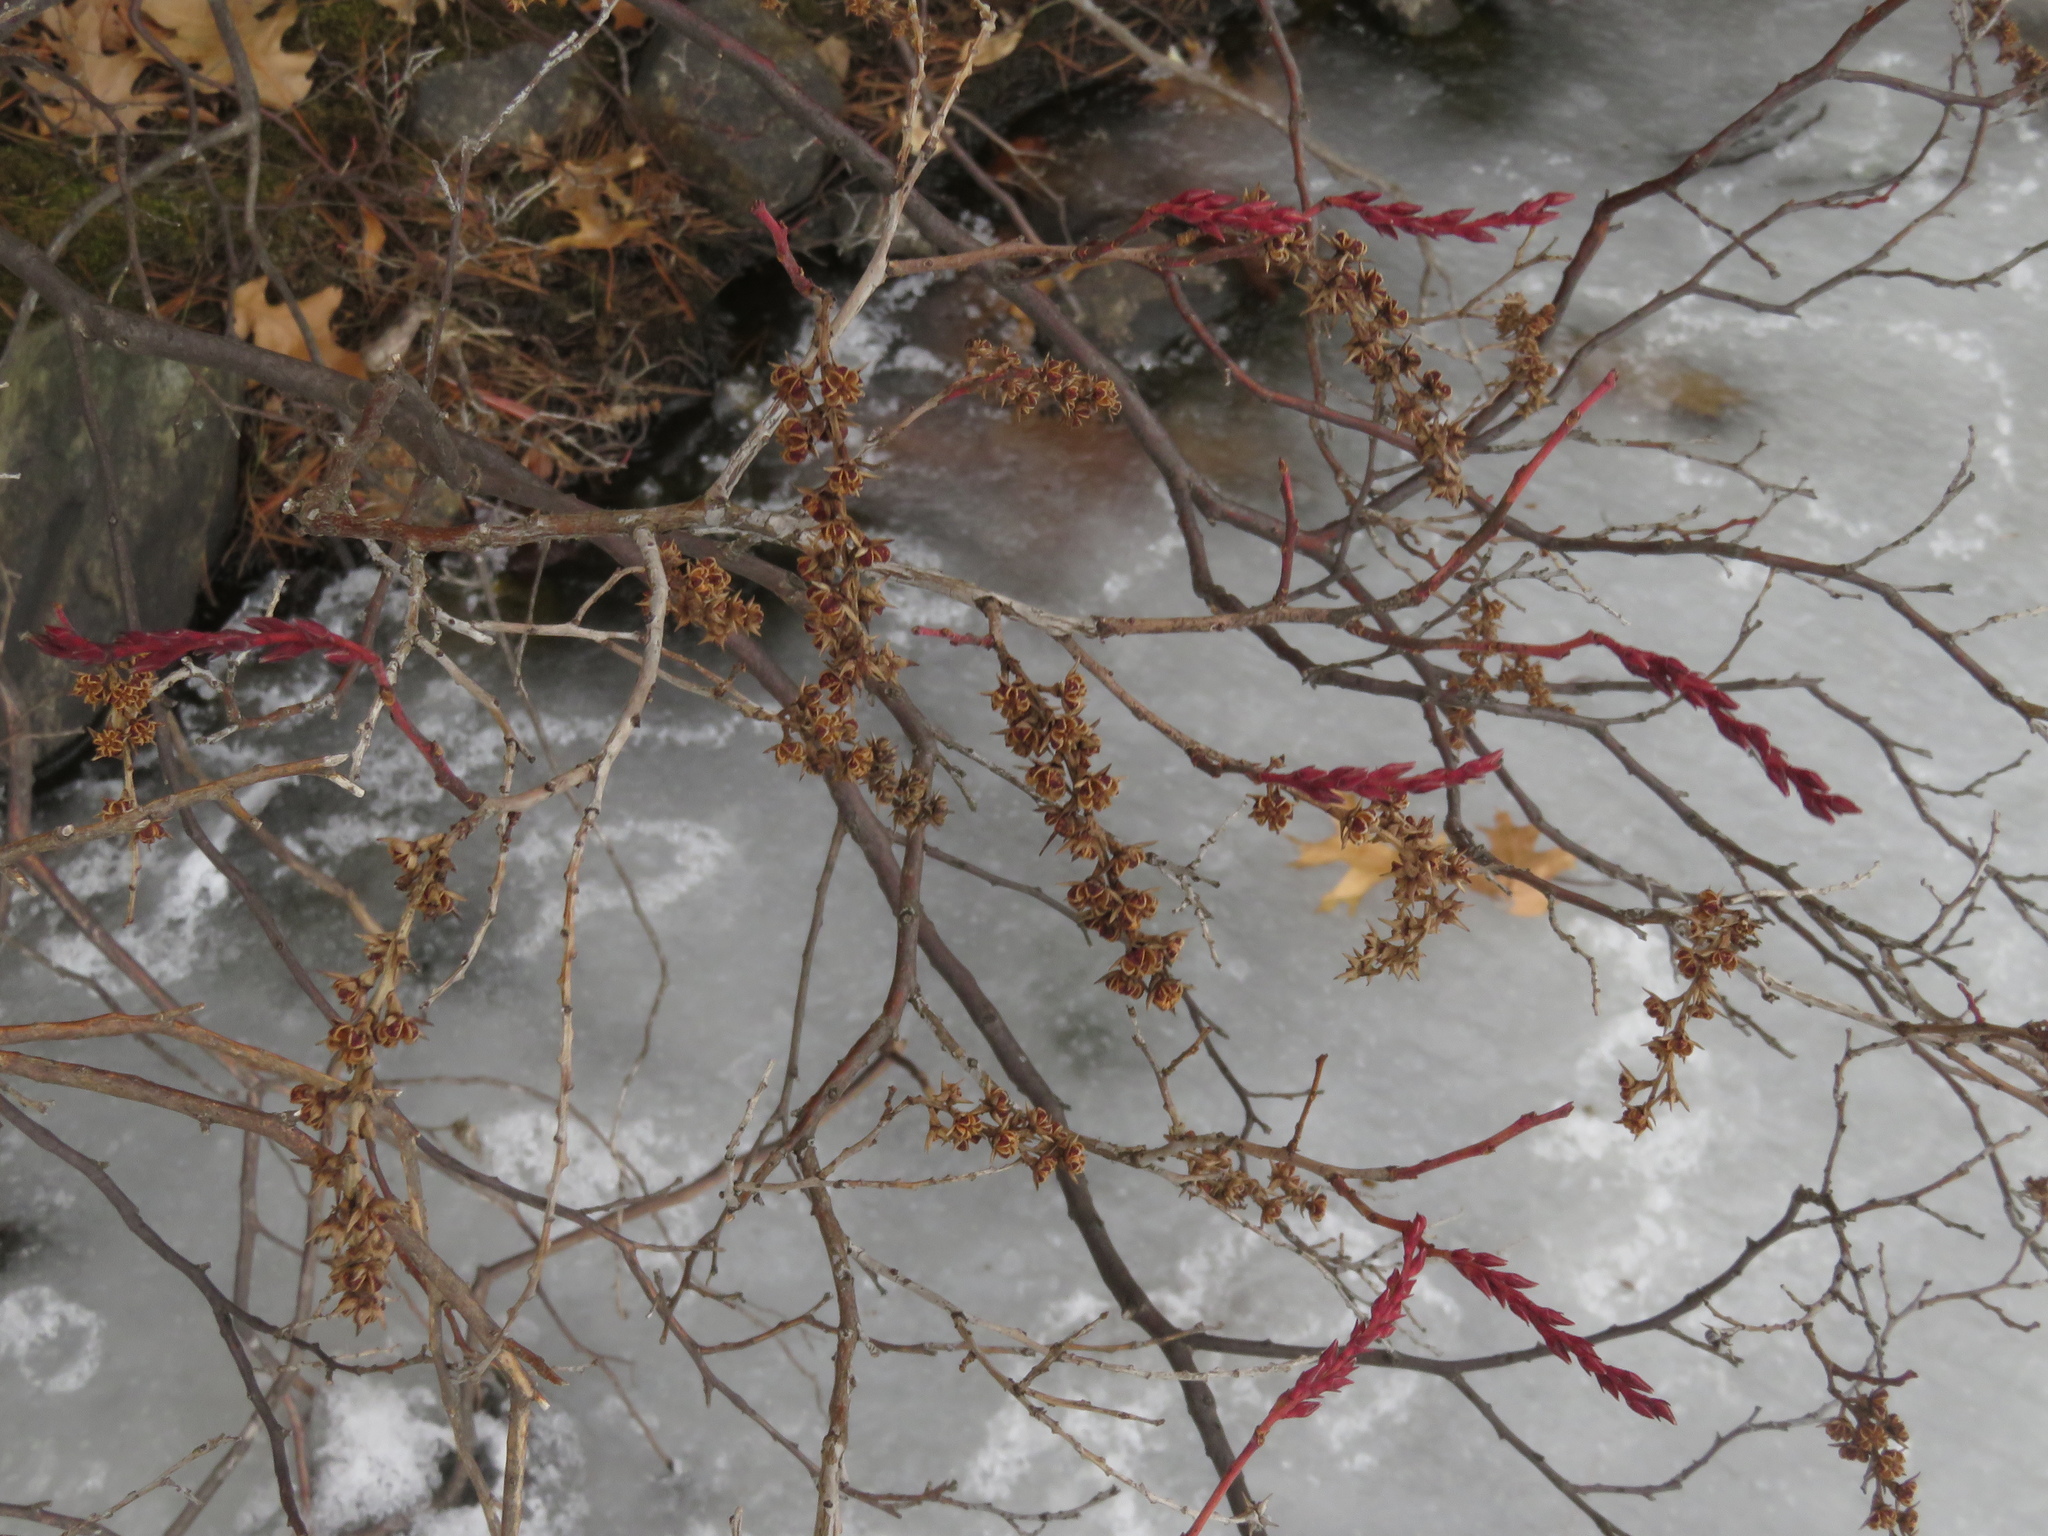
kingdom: Plantae
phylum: Tracheophyta
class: Magnoliopsida
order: Ericales
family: Ericaceae
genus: Eubotrys
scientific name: Eubotrys racemosa
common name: Fetterbush
